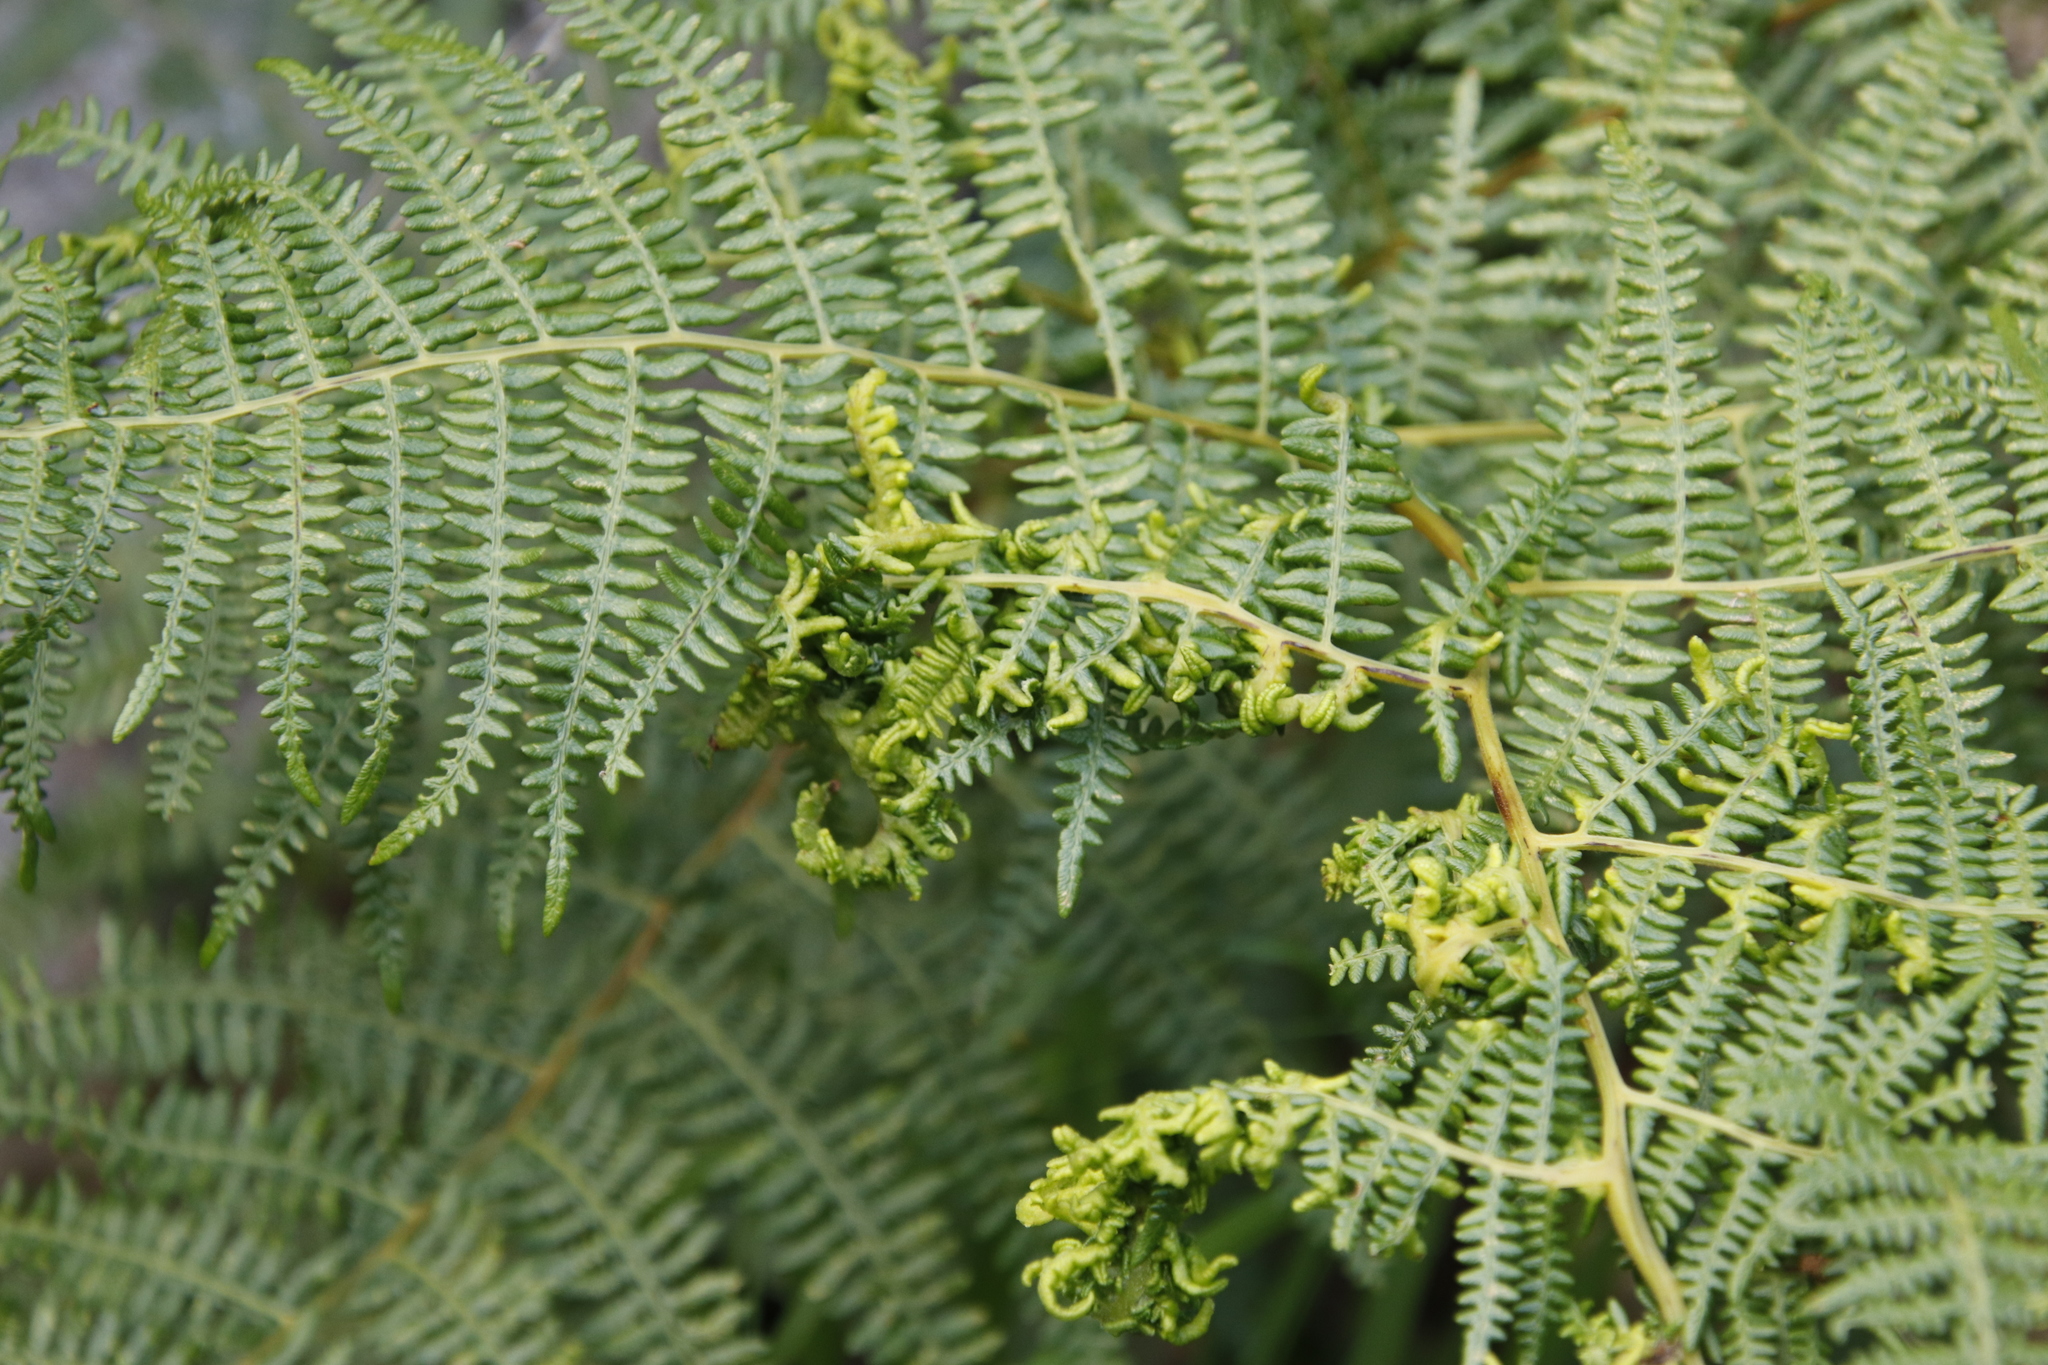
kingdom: Animalia
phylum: Arthropoda
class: Arachnida
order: Trombidiformes
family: Eriophyidae
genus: Eriophyes
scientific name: Eriophyes
